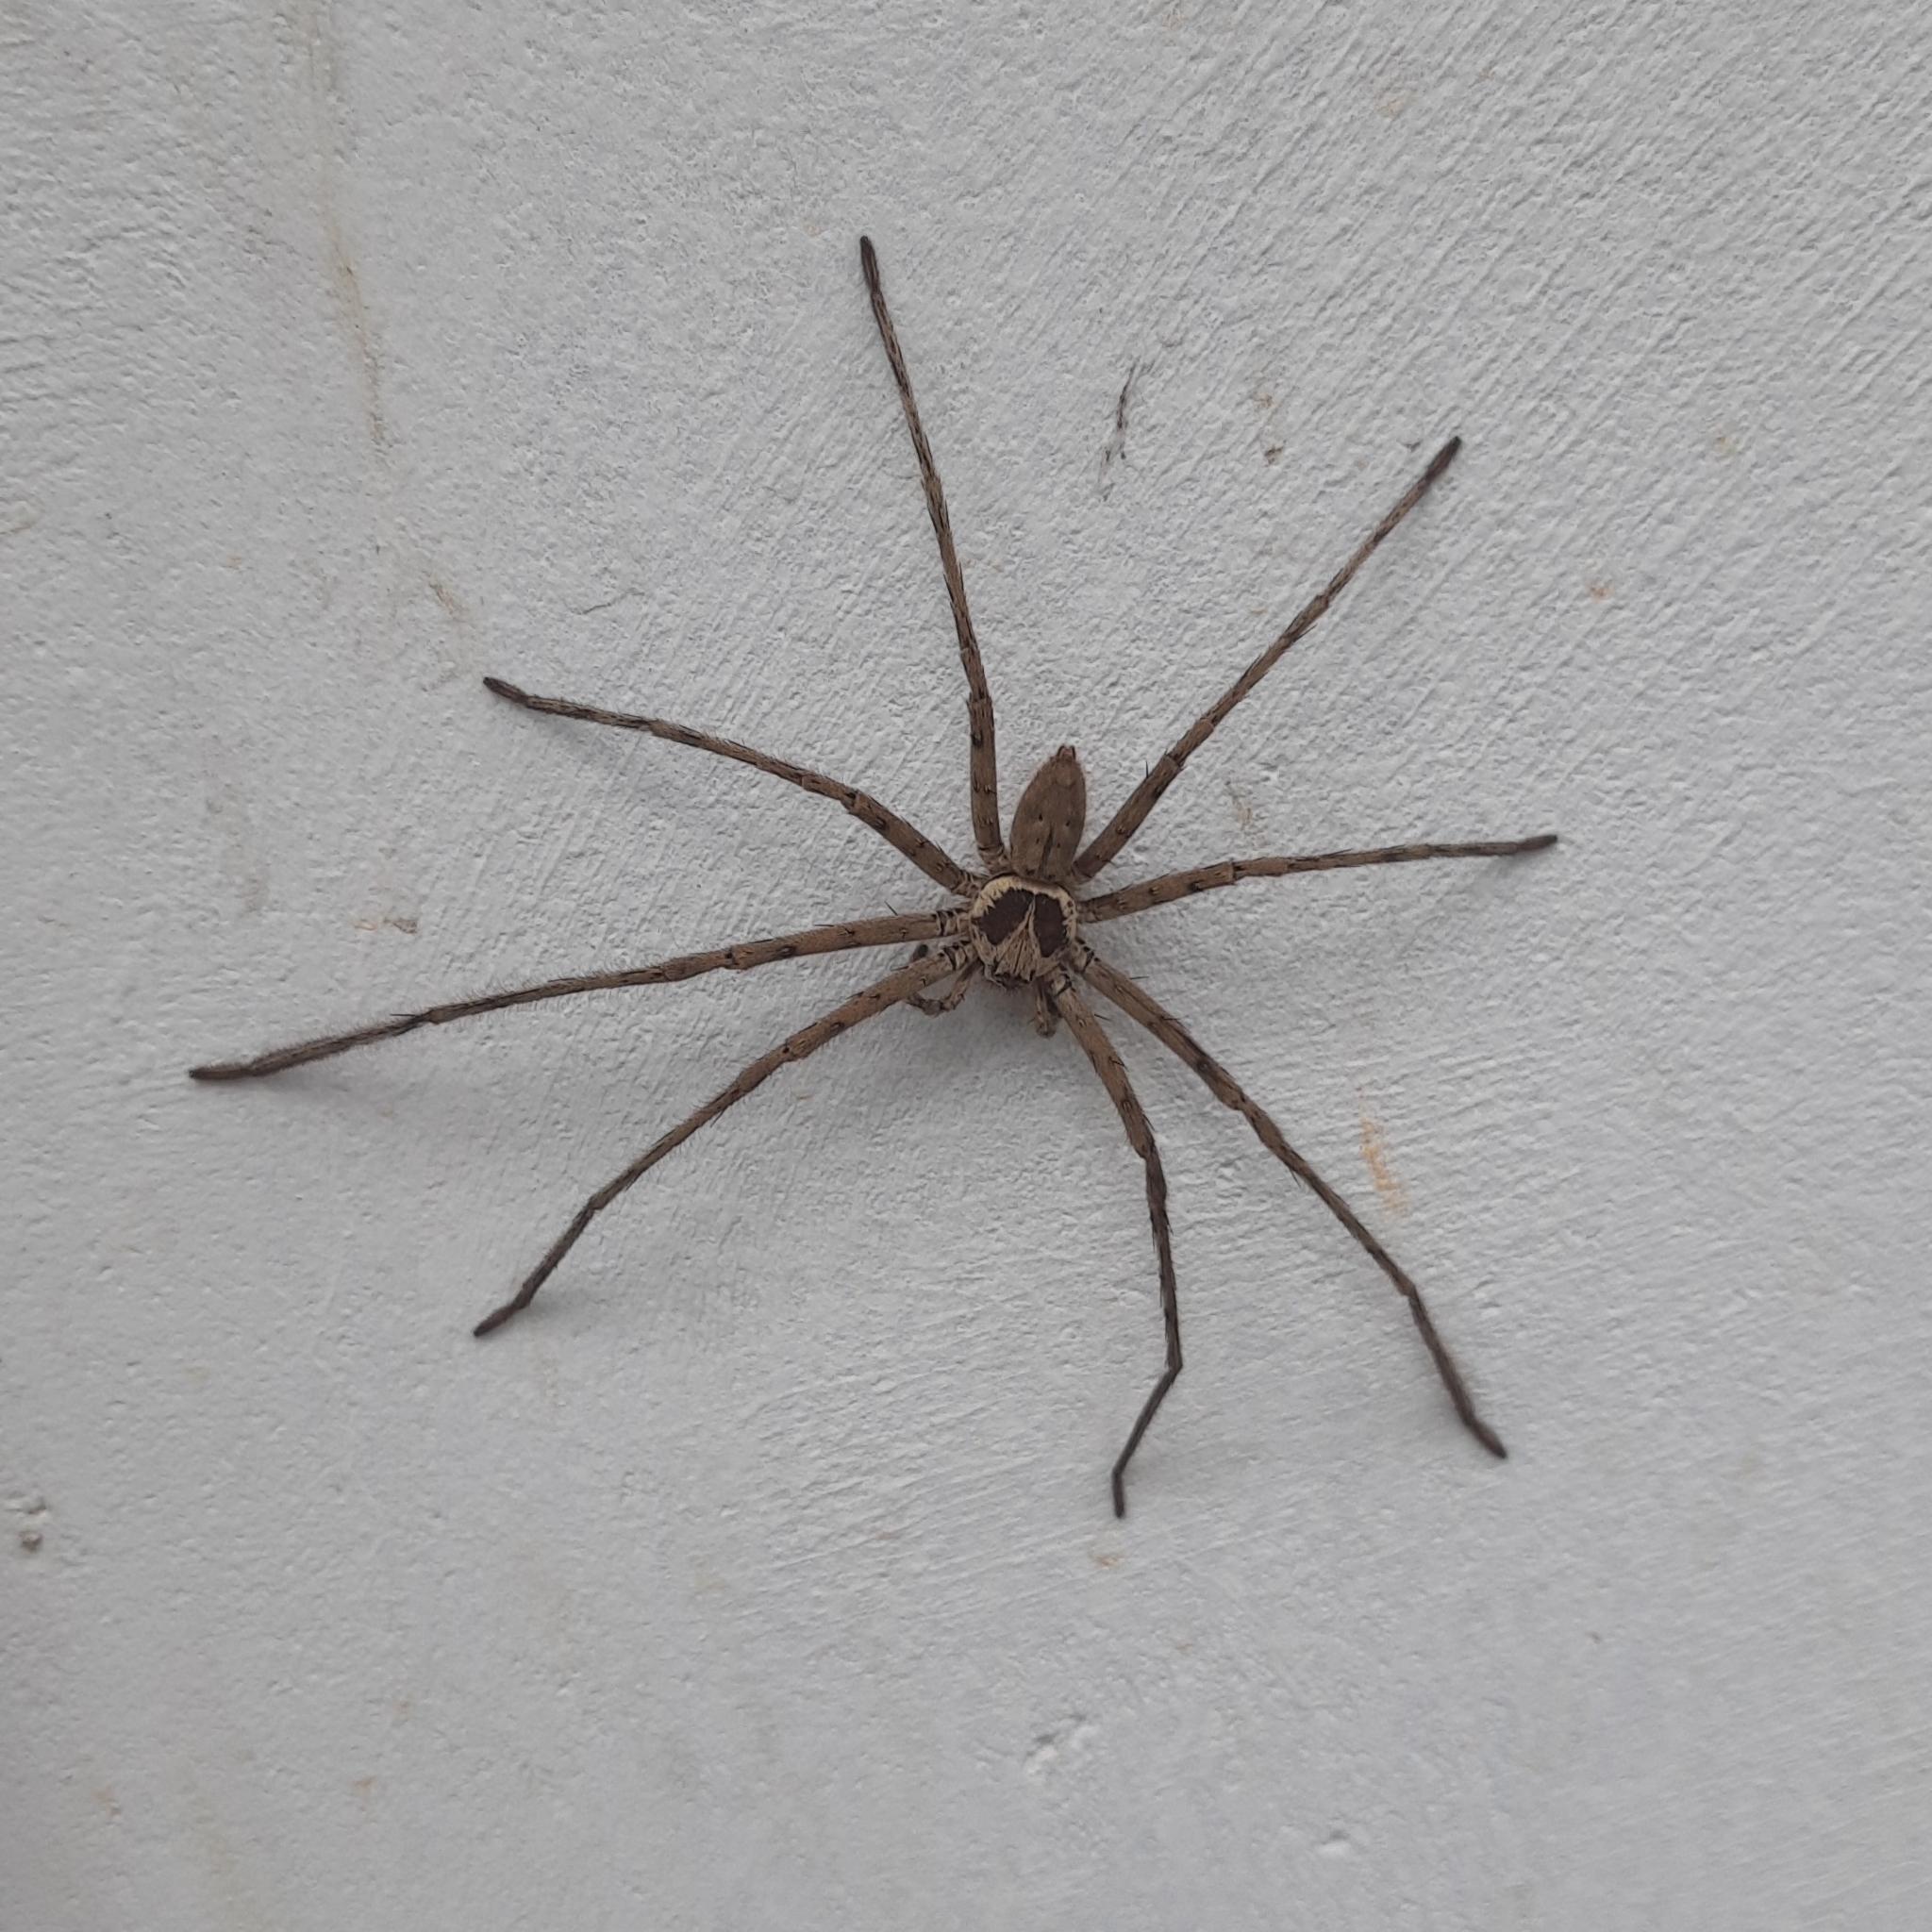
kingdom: Animalia
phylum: Arthropoda
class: Arachnida
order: Araneae
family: Sparassidae
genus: Heteropoda
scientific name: Heteropoda venatoria
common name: Huntsman spider
